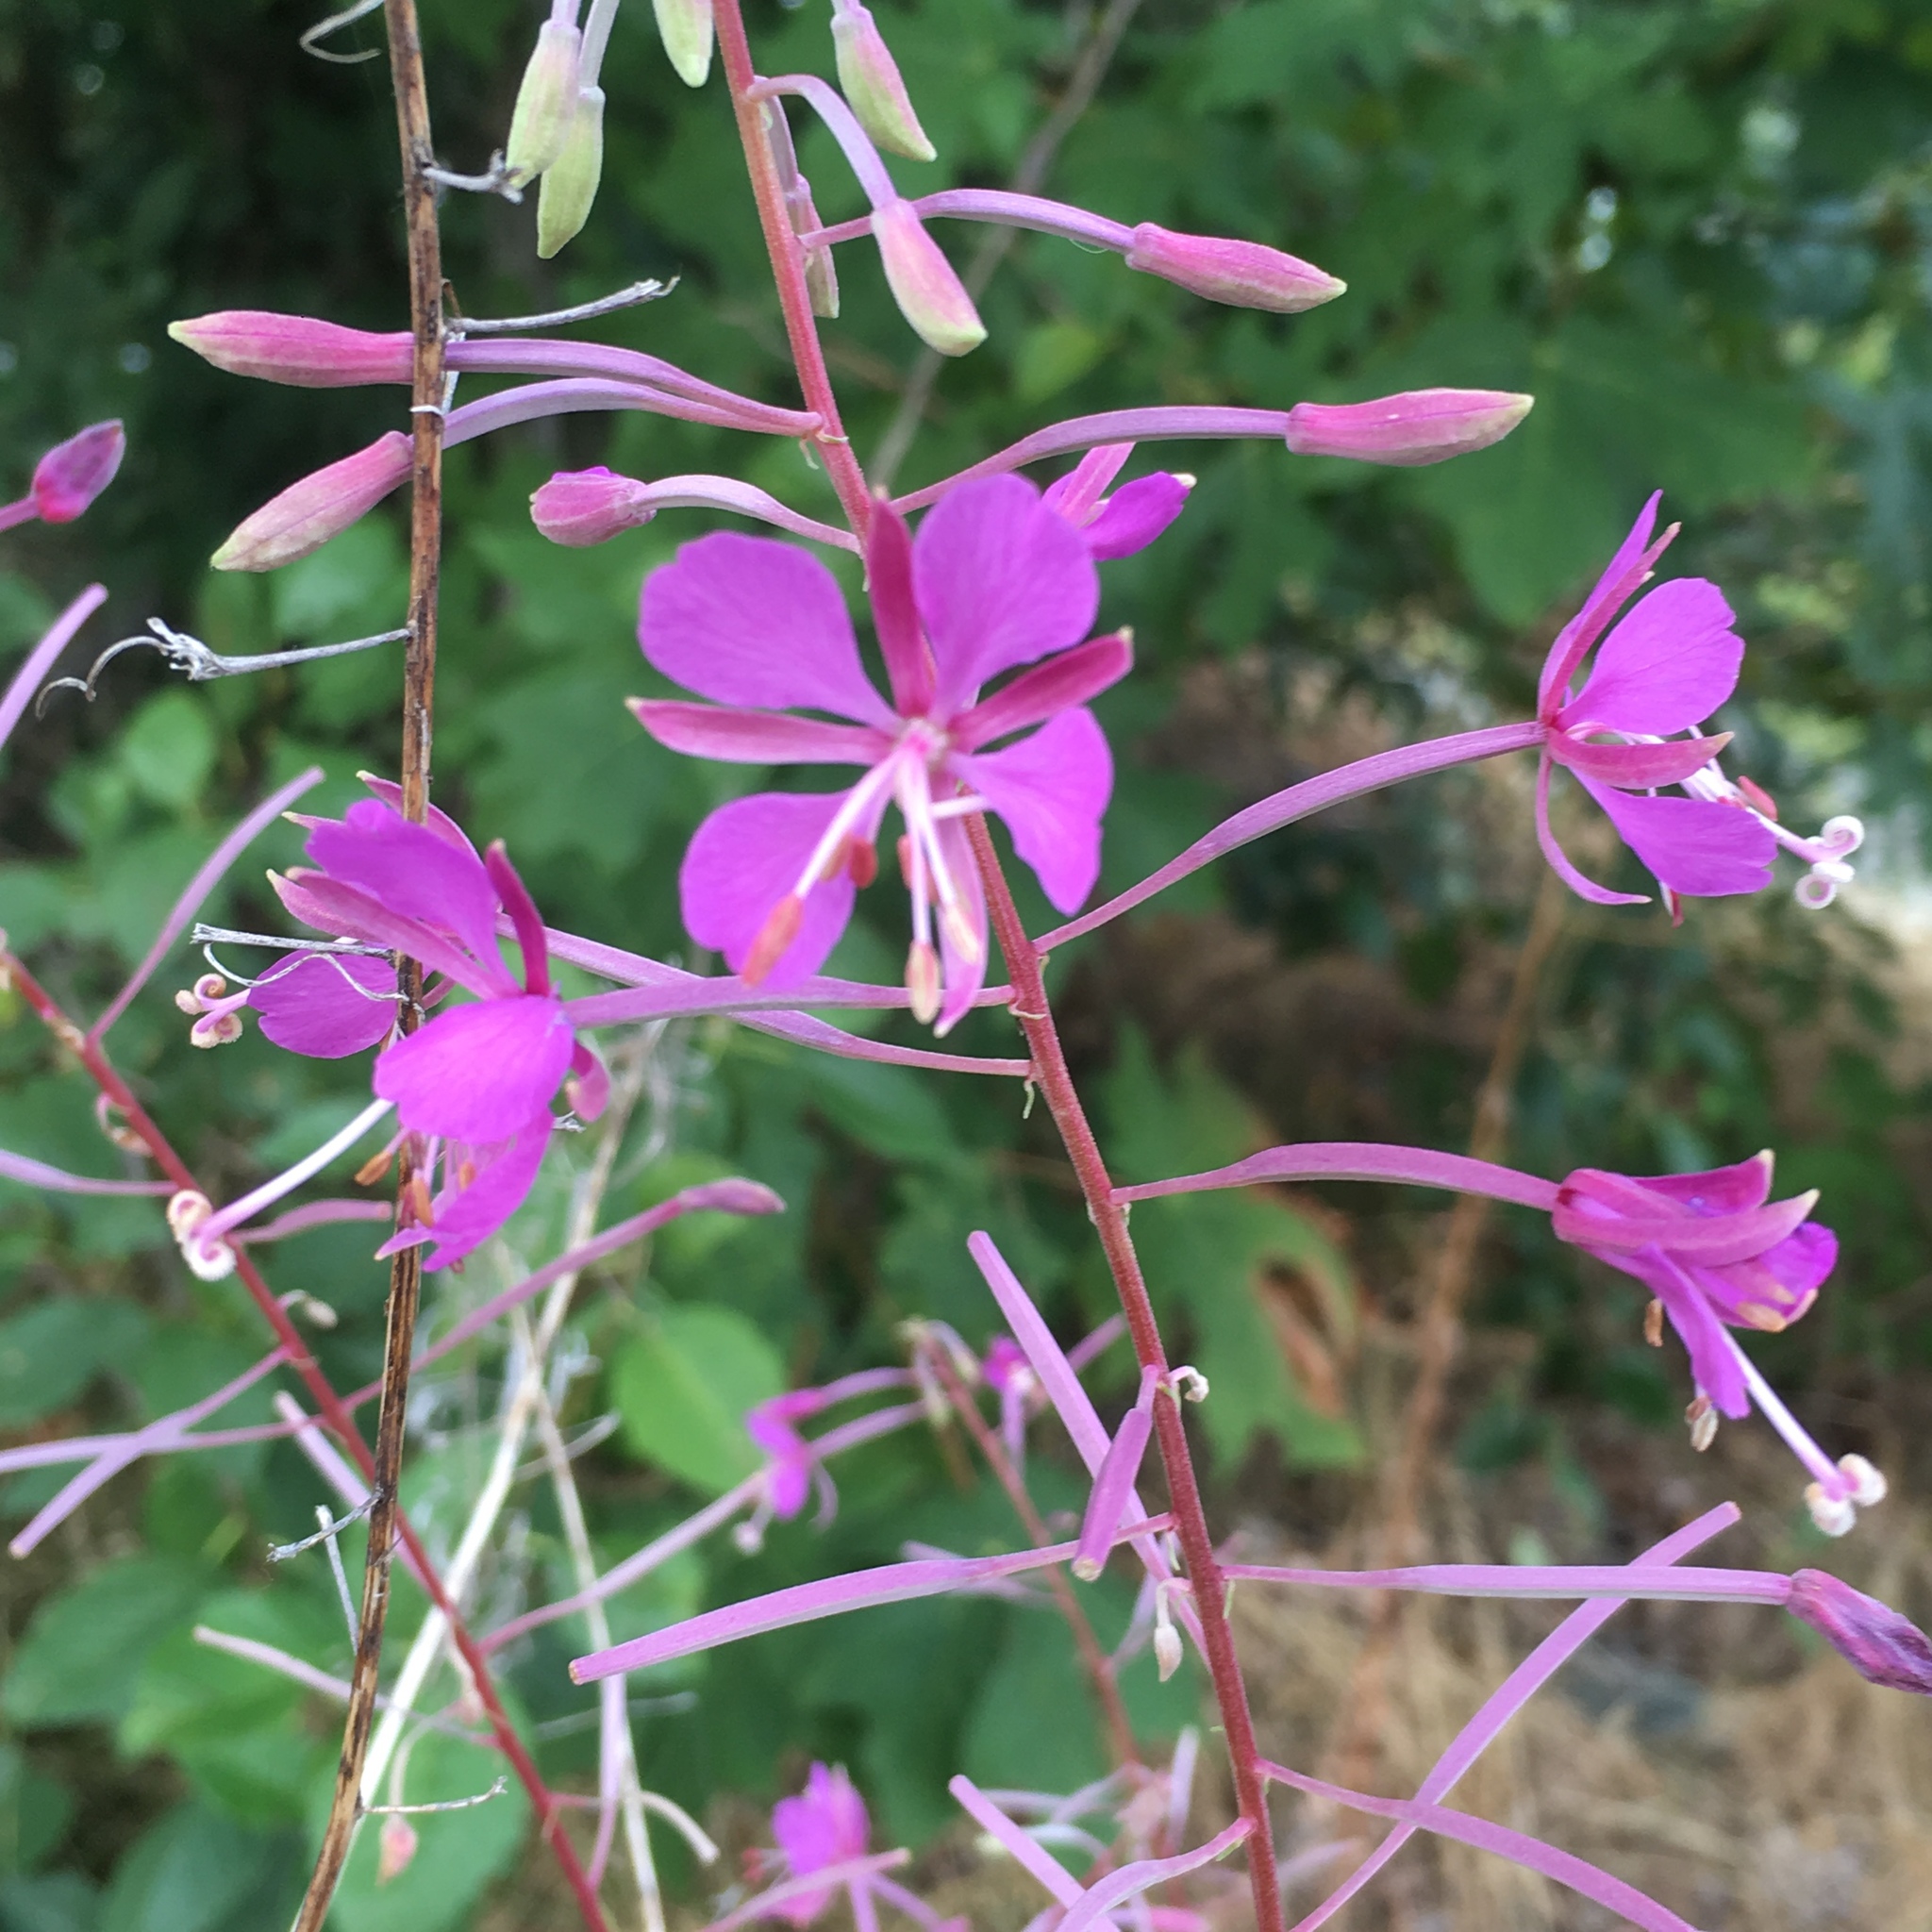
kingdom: Plantae
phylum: Tracheophyta
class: Magnoliopsida
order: Myrtales
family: Onagraceae
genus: Chamaenerion
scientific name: Chamaenerion angustifolium
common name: Fireweed
